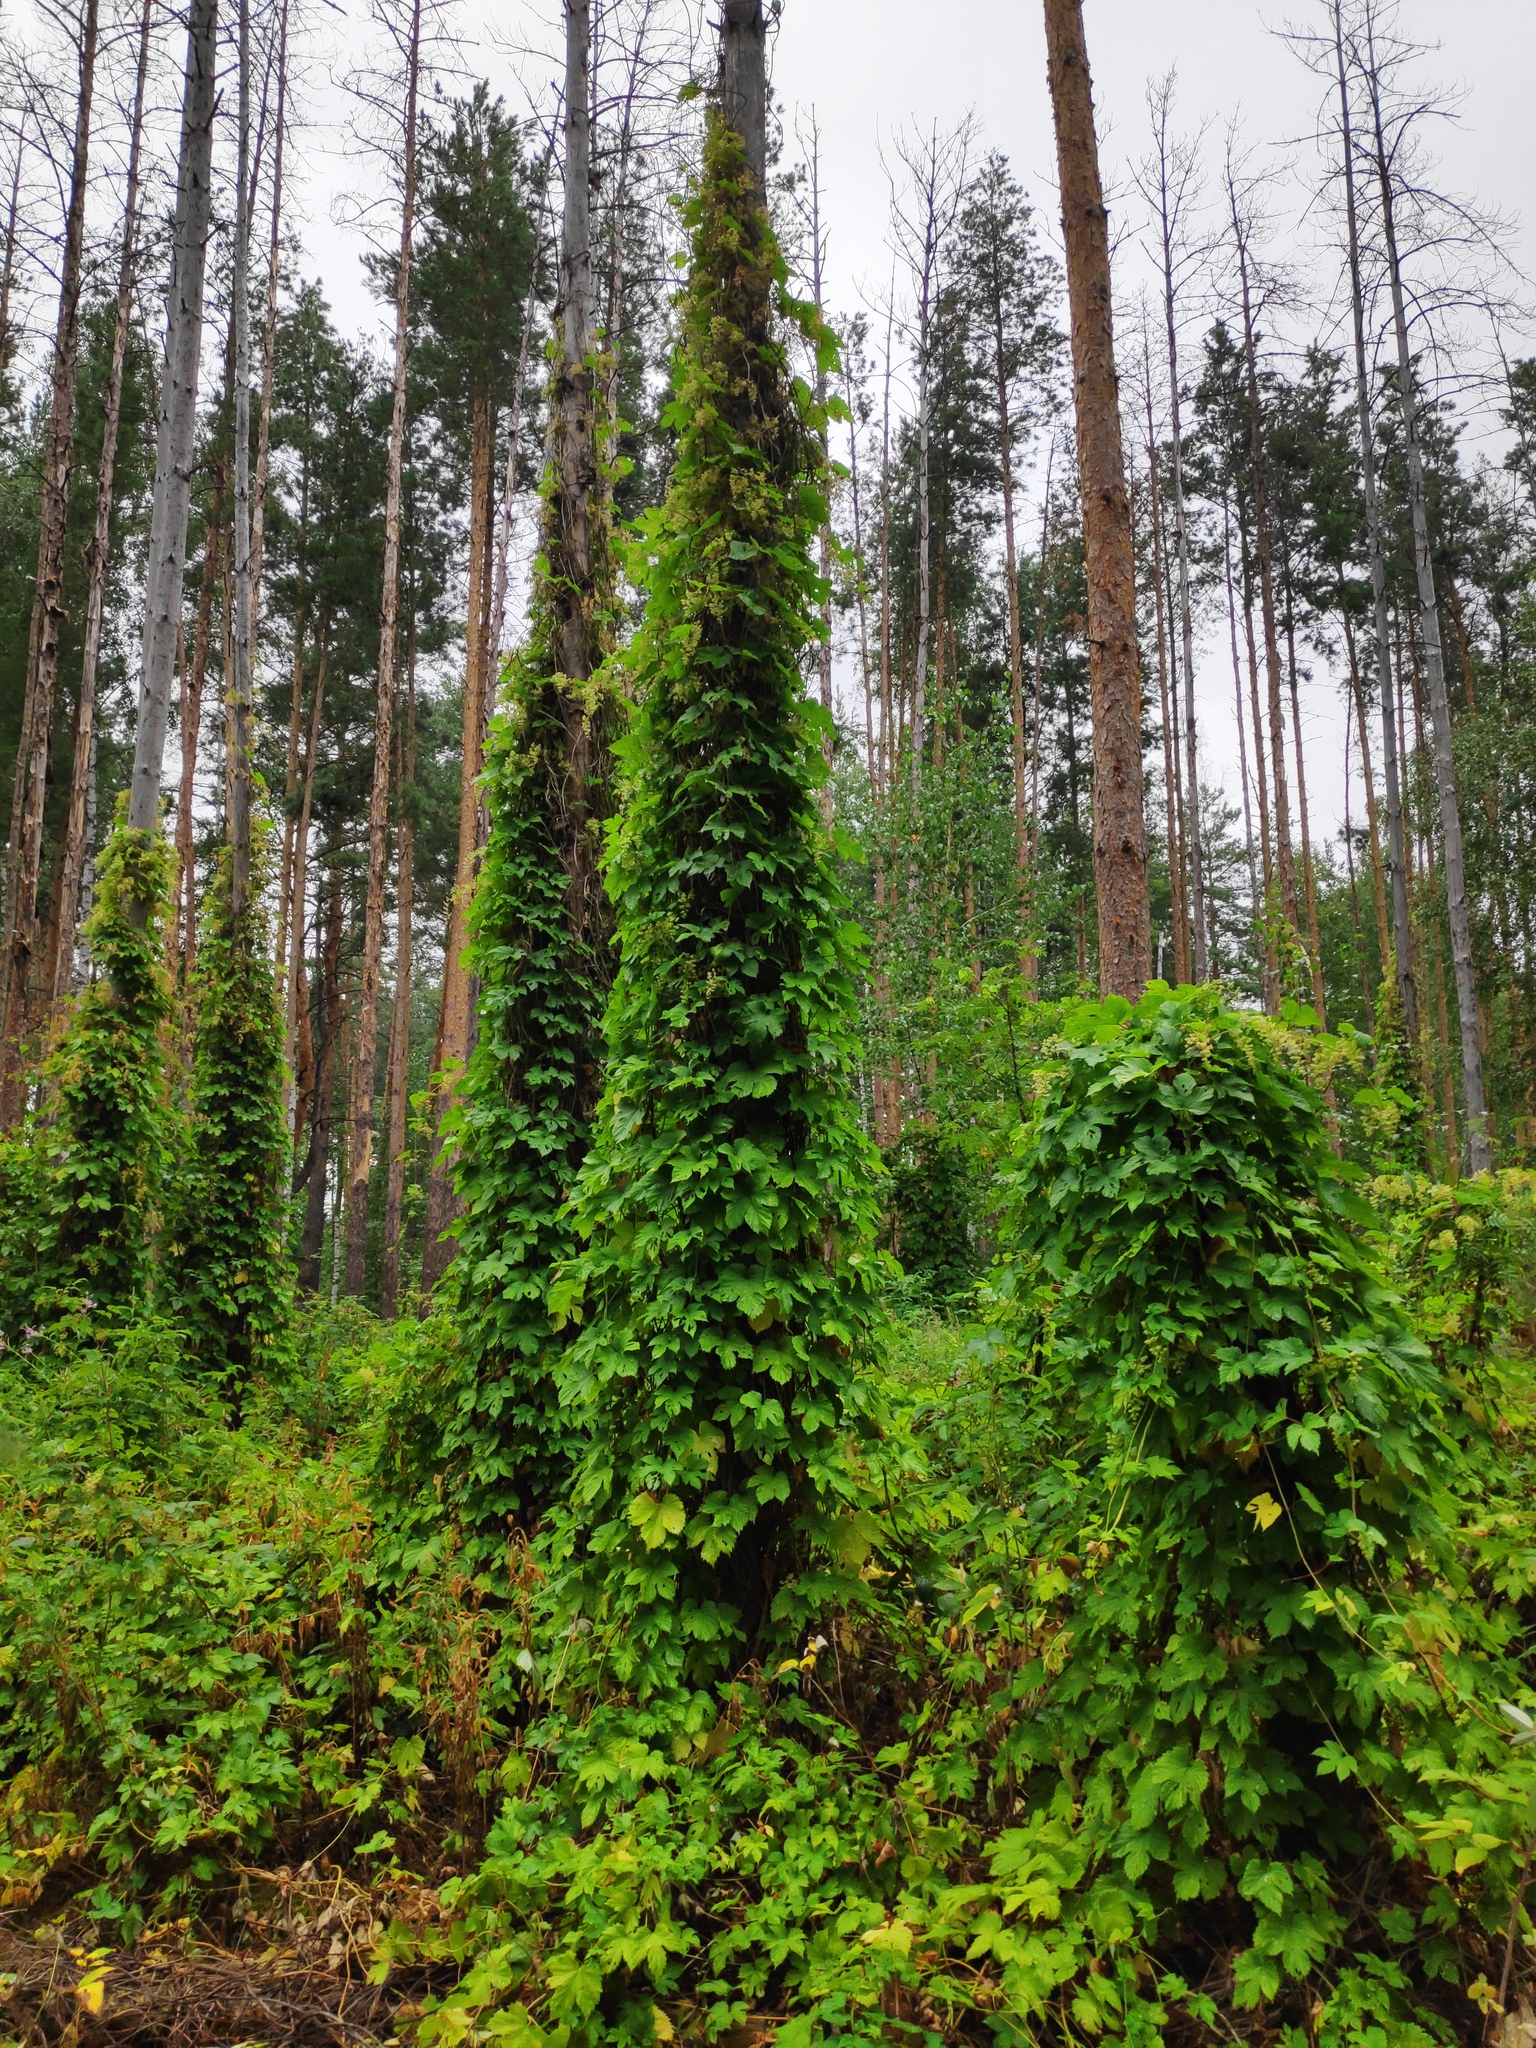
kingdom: Plantae
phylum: Tracheophyta
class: Magnoliopsida
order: Rosales
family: Cannabaceae
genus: Humulus
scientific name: Humulus lupulus
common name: Hop
